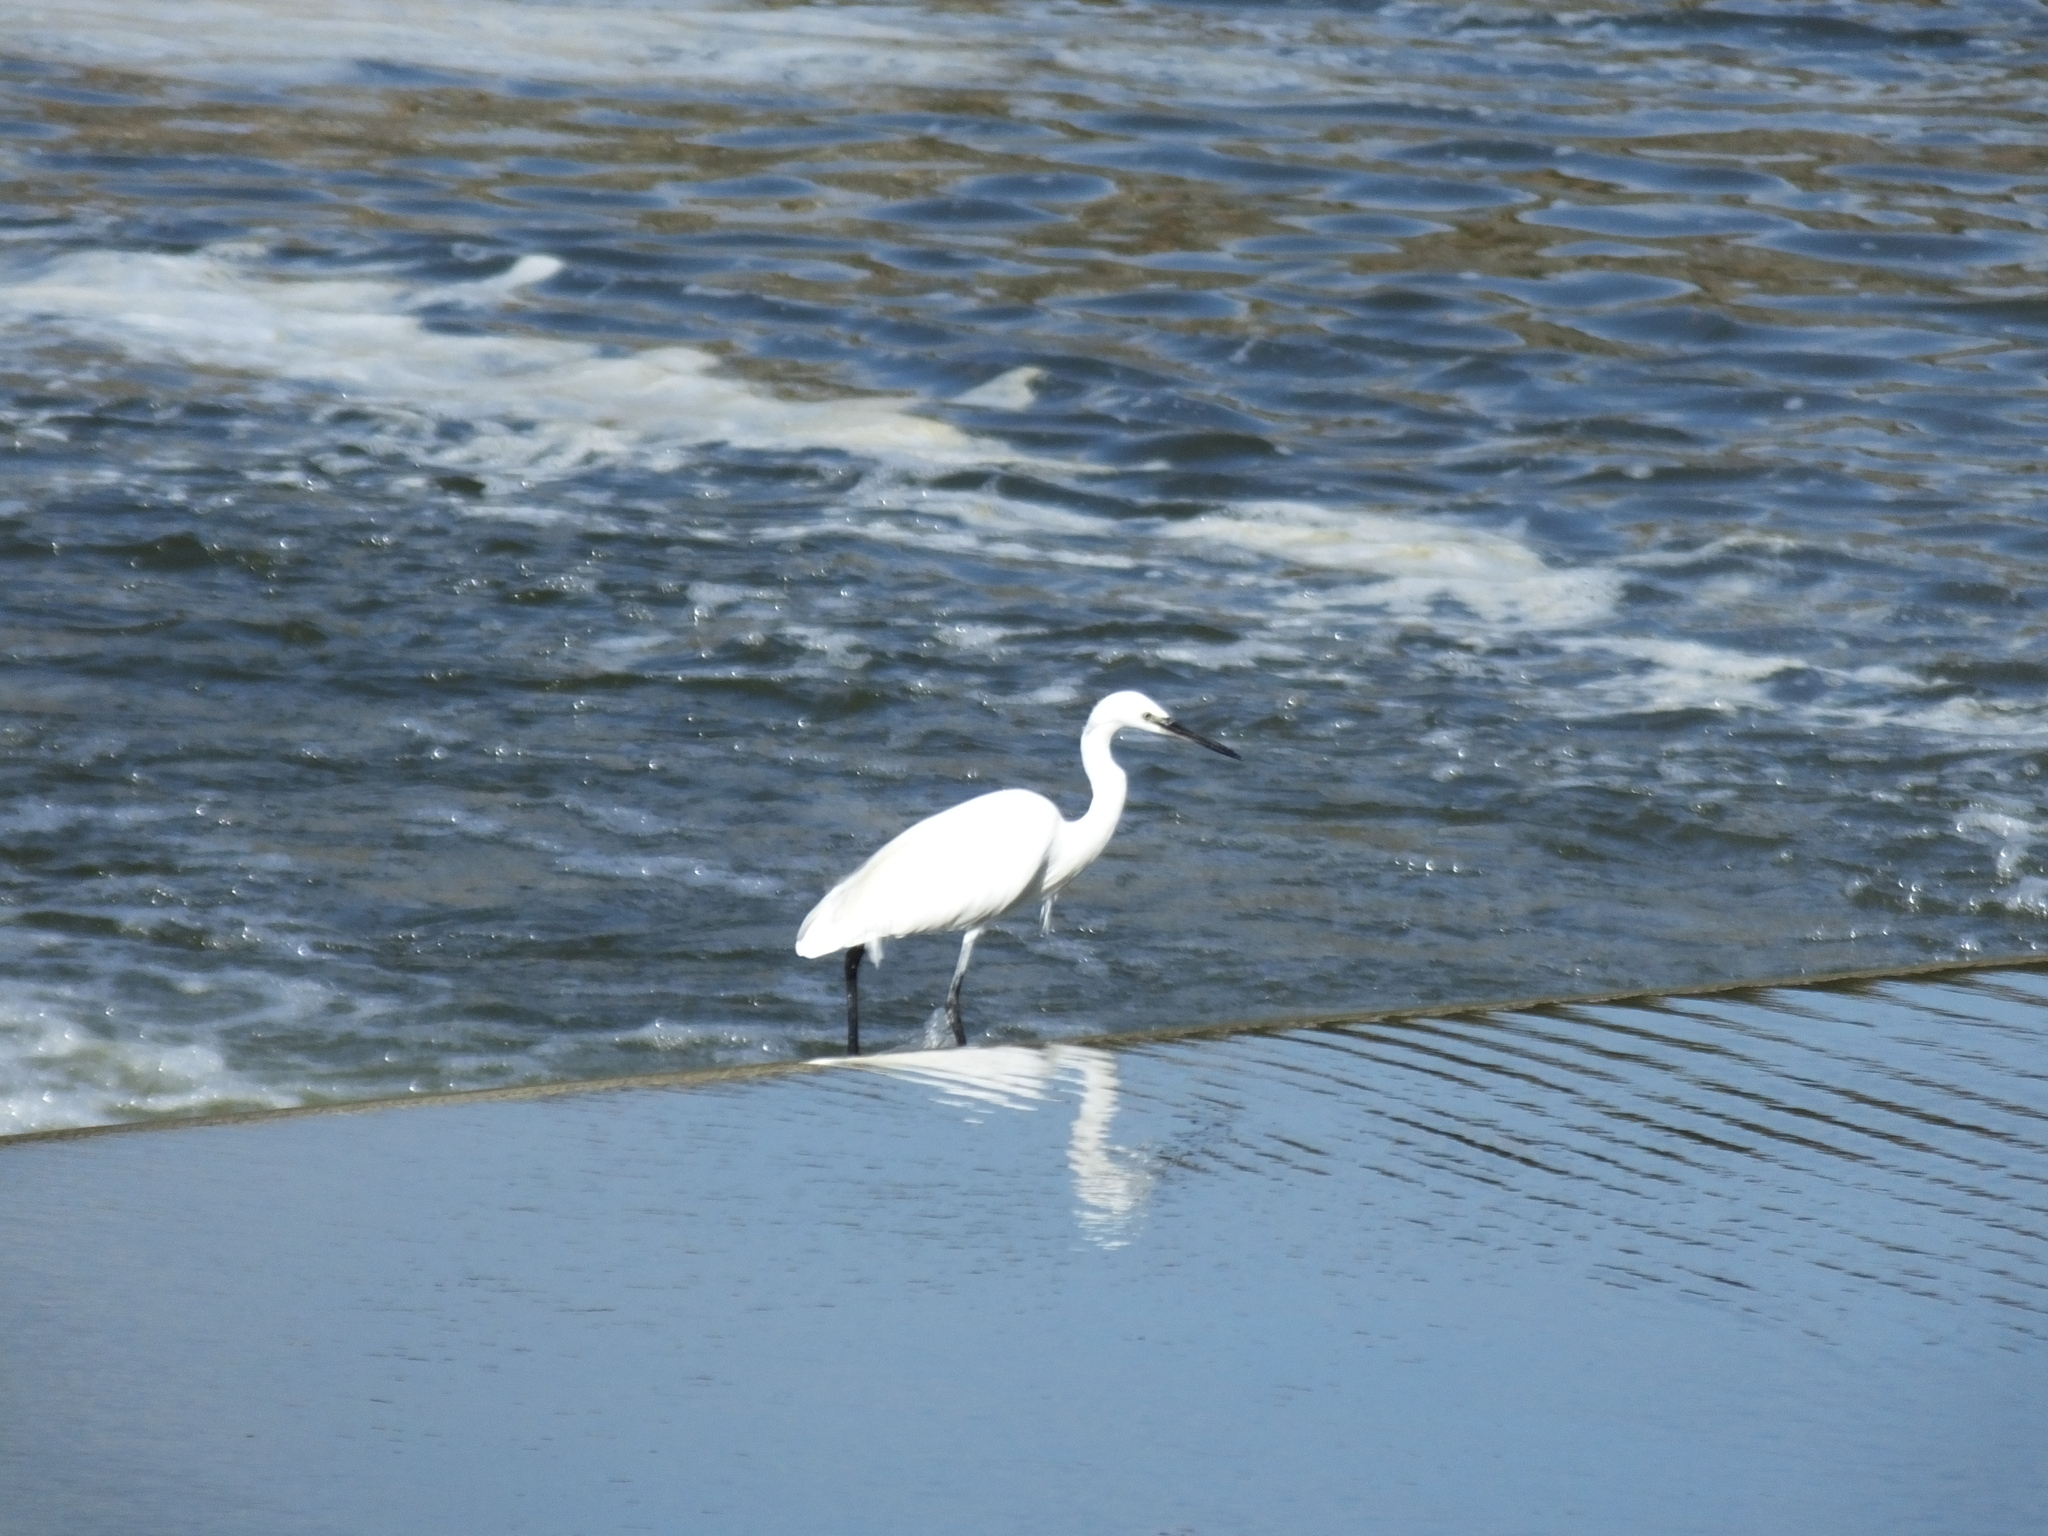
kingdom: Animalia
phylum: Chordata
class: Aves
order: Pelecaniformes
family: Ardeidae
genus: Egretta
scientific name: Egretta garzetta
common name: Little egret
